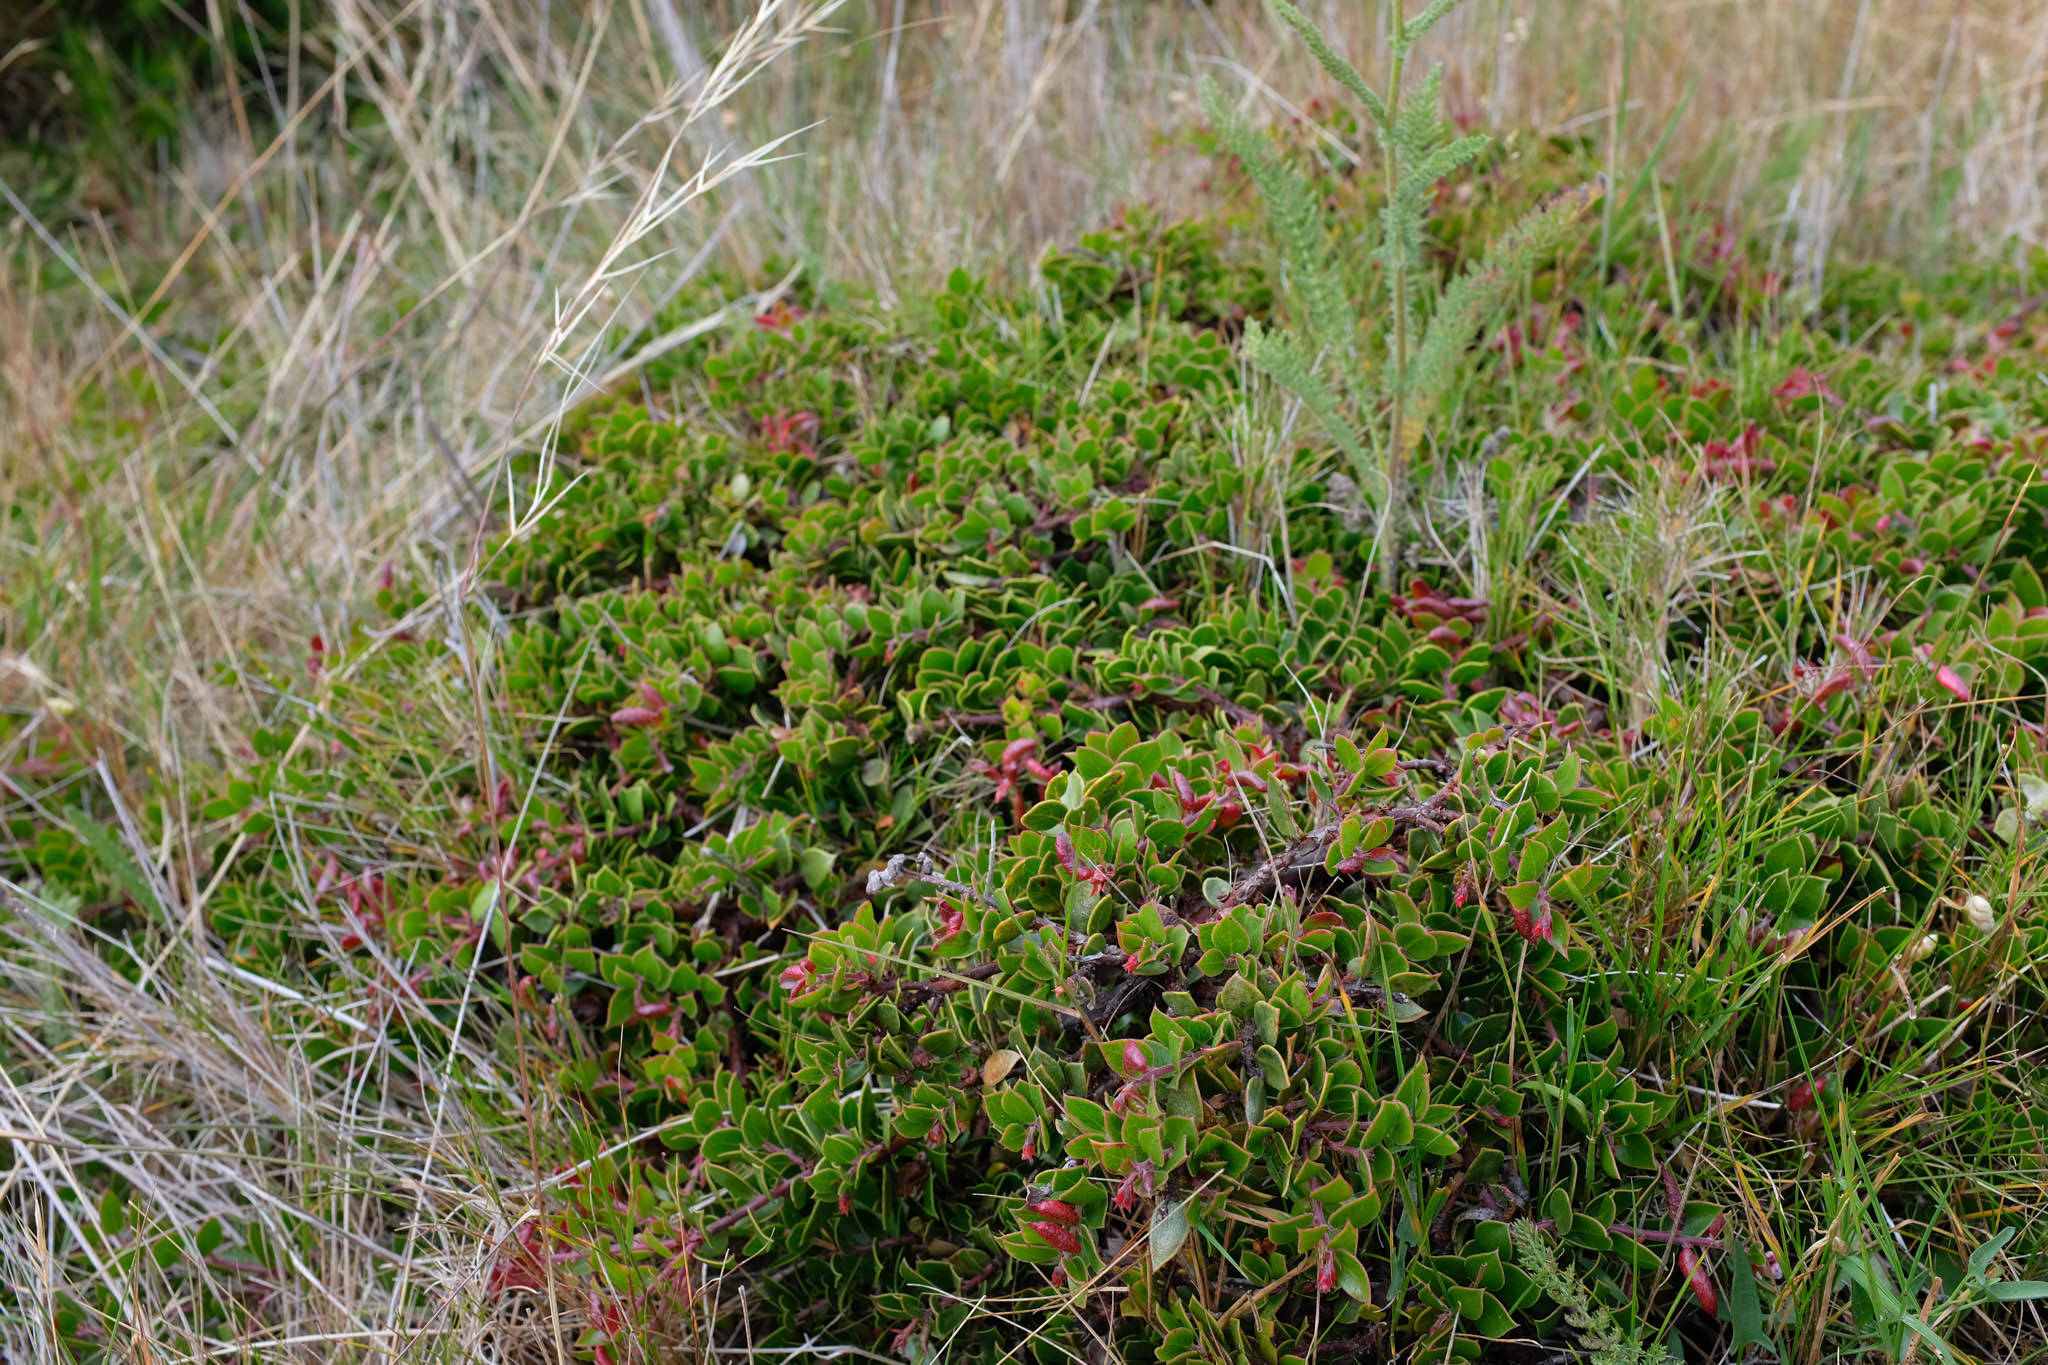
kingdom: Plantae
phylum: Tracheophyta
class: Magnoliopsida
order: Ericales
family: Ericaceae
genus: Arctostaphylos
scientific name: Arctostaphylos hookeri
